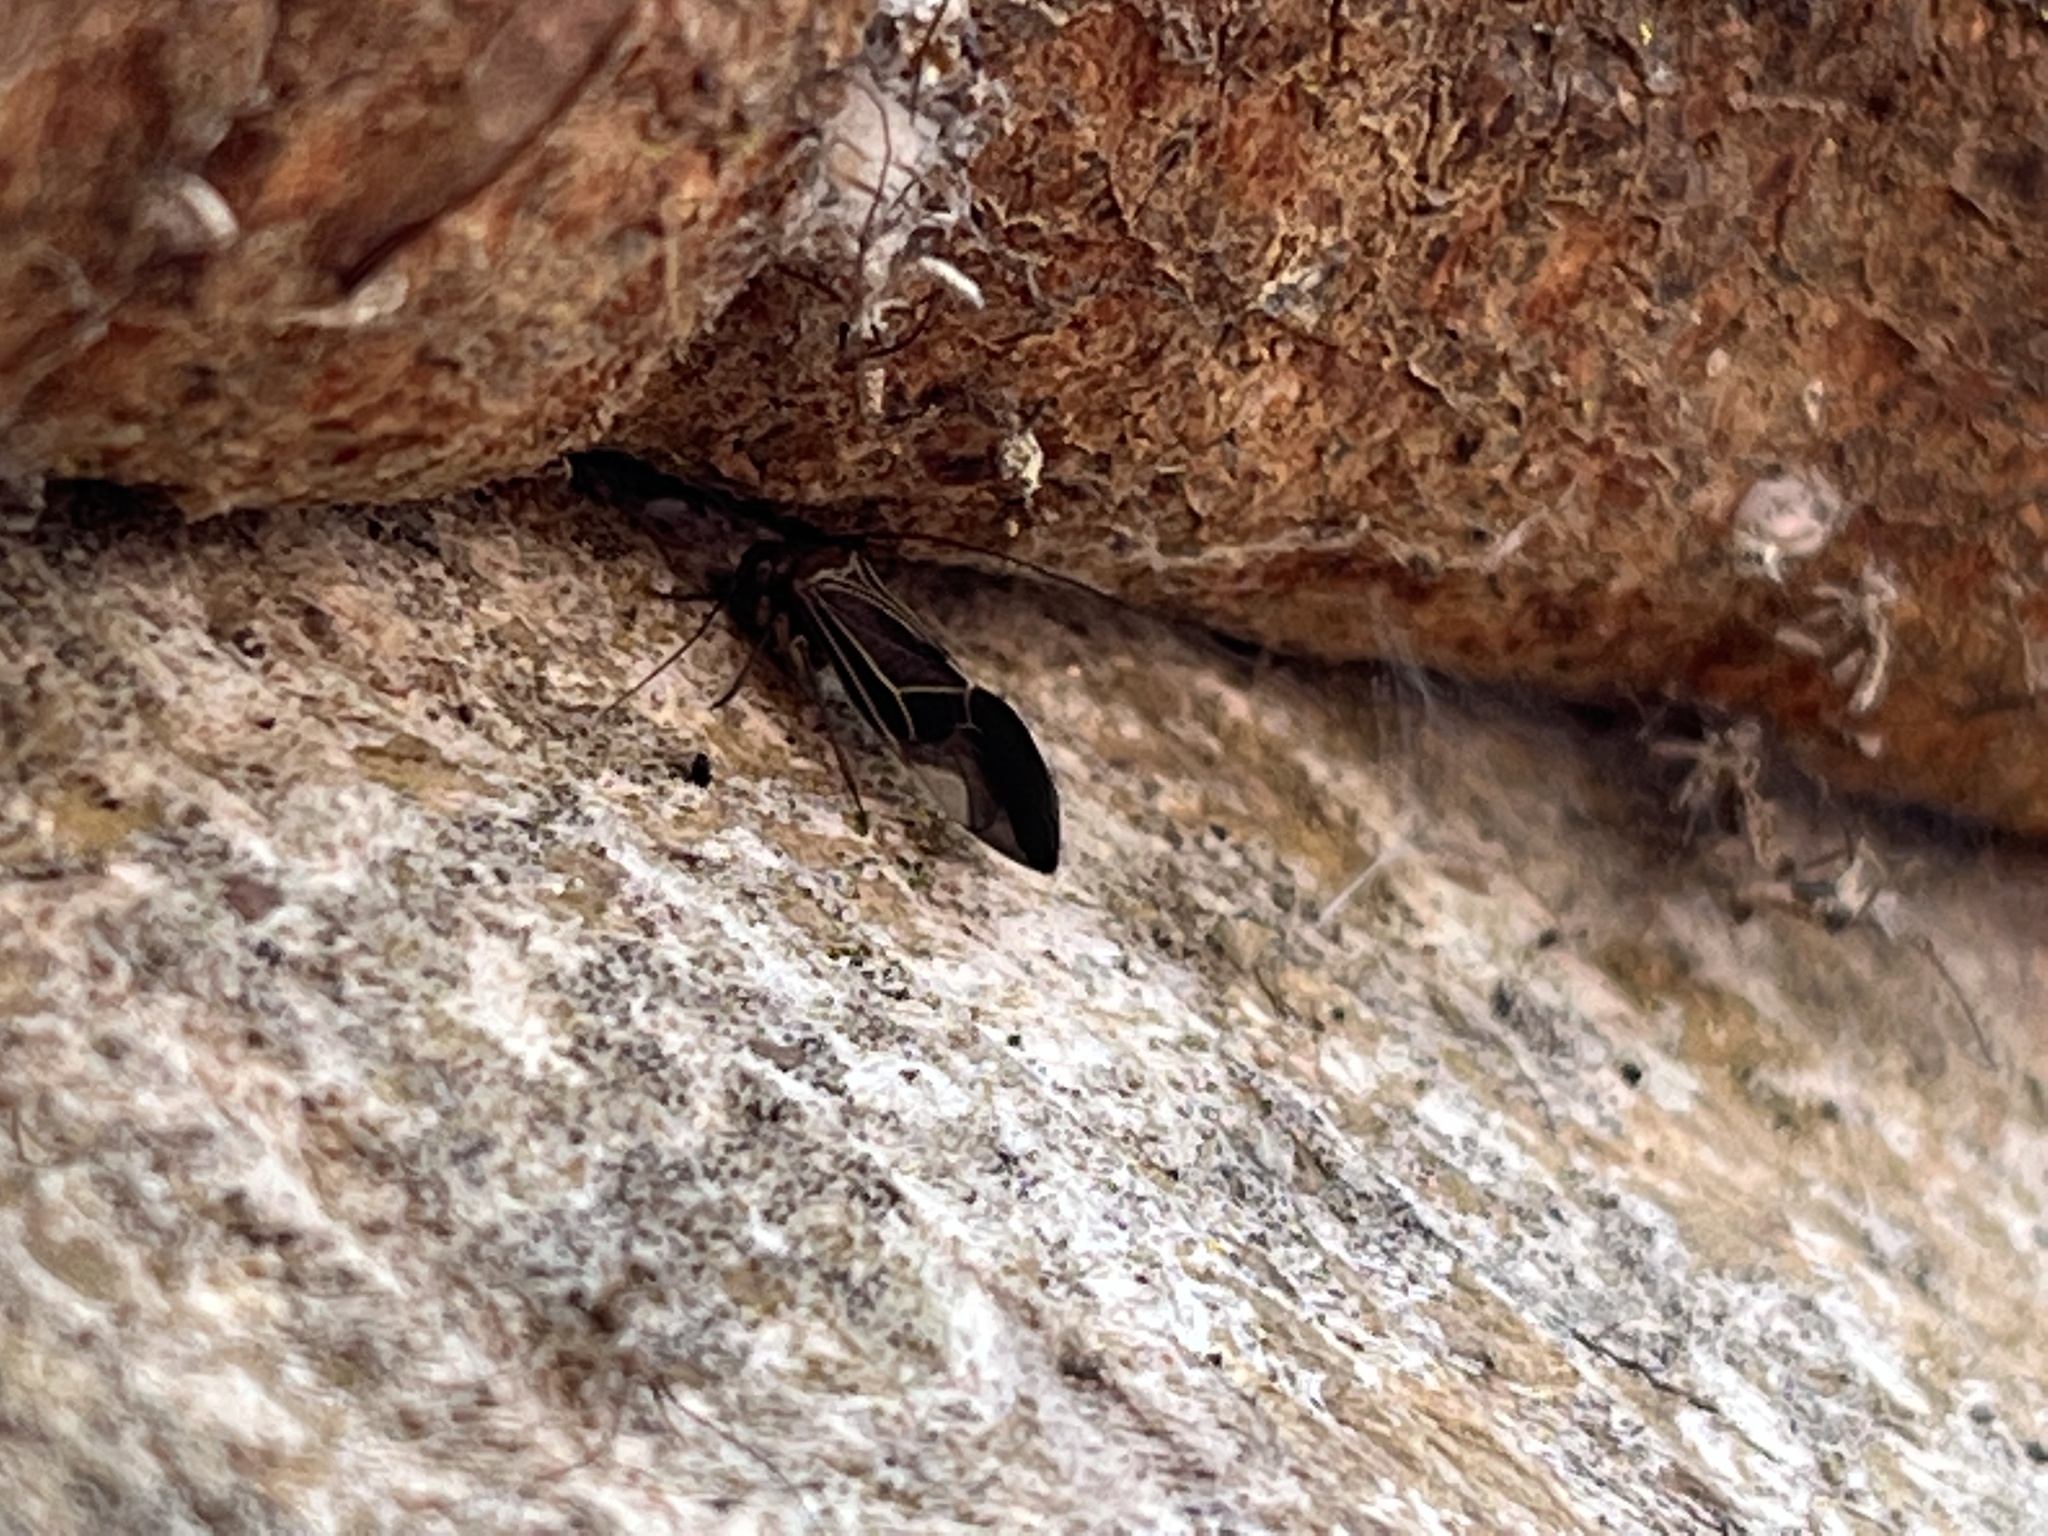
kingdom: Animalia
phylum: Arthropoda
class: Insecta
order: Psocodea
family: Psocidae
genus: Cerastipsocus
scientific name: Cerastipsocus venosus
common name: Tree cattle
